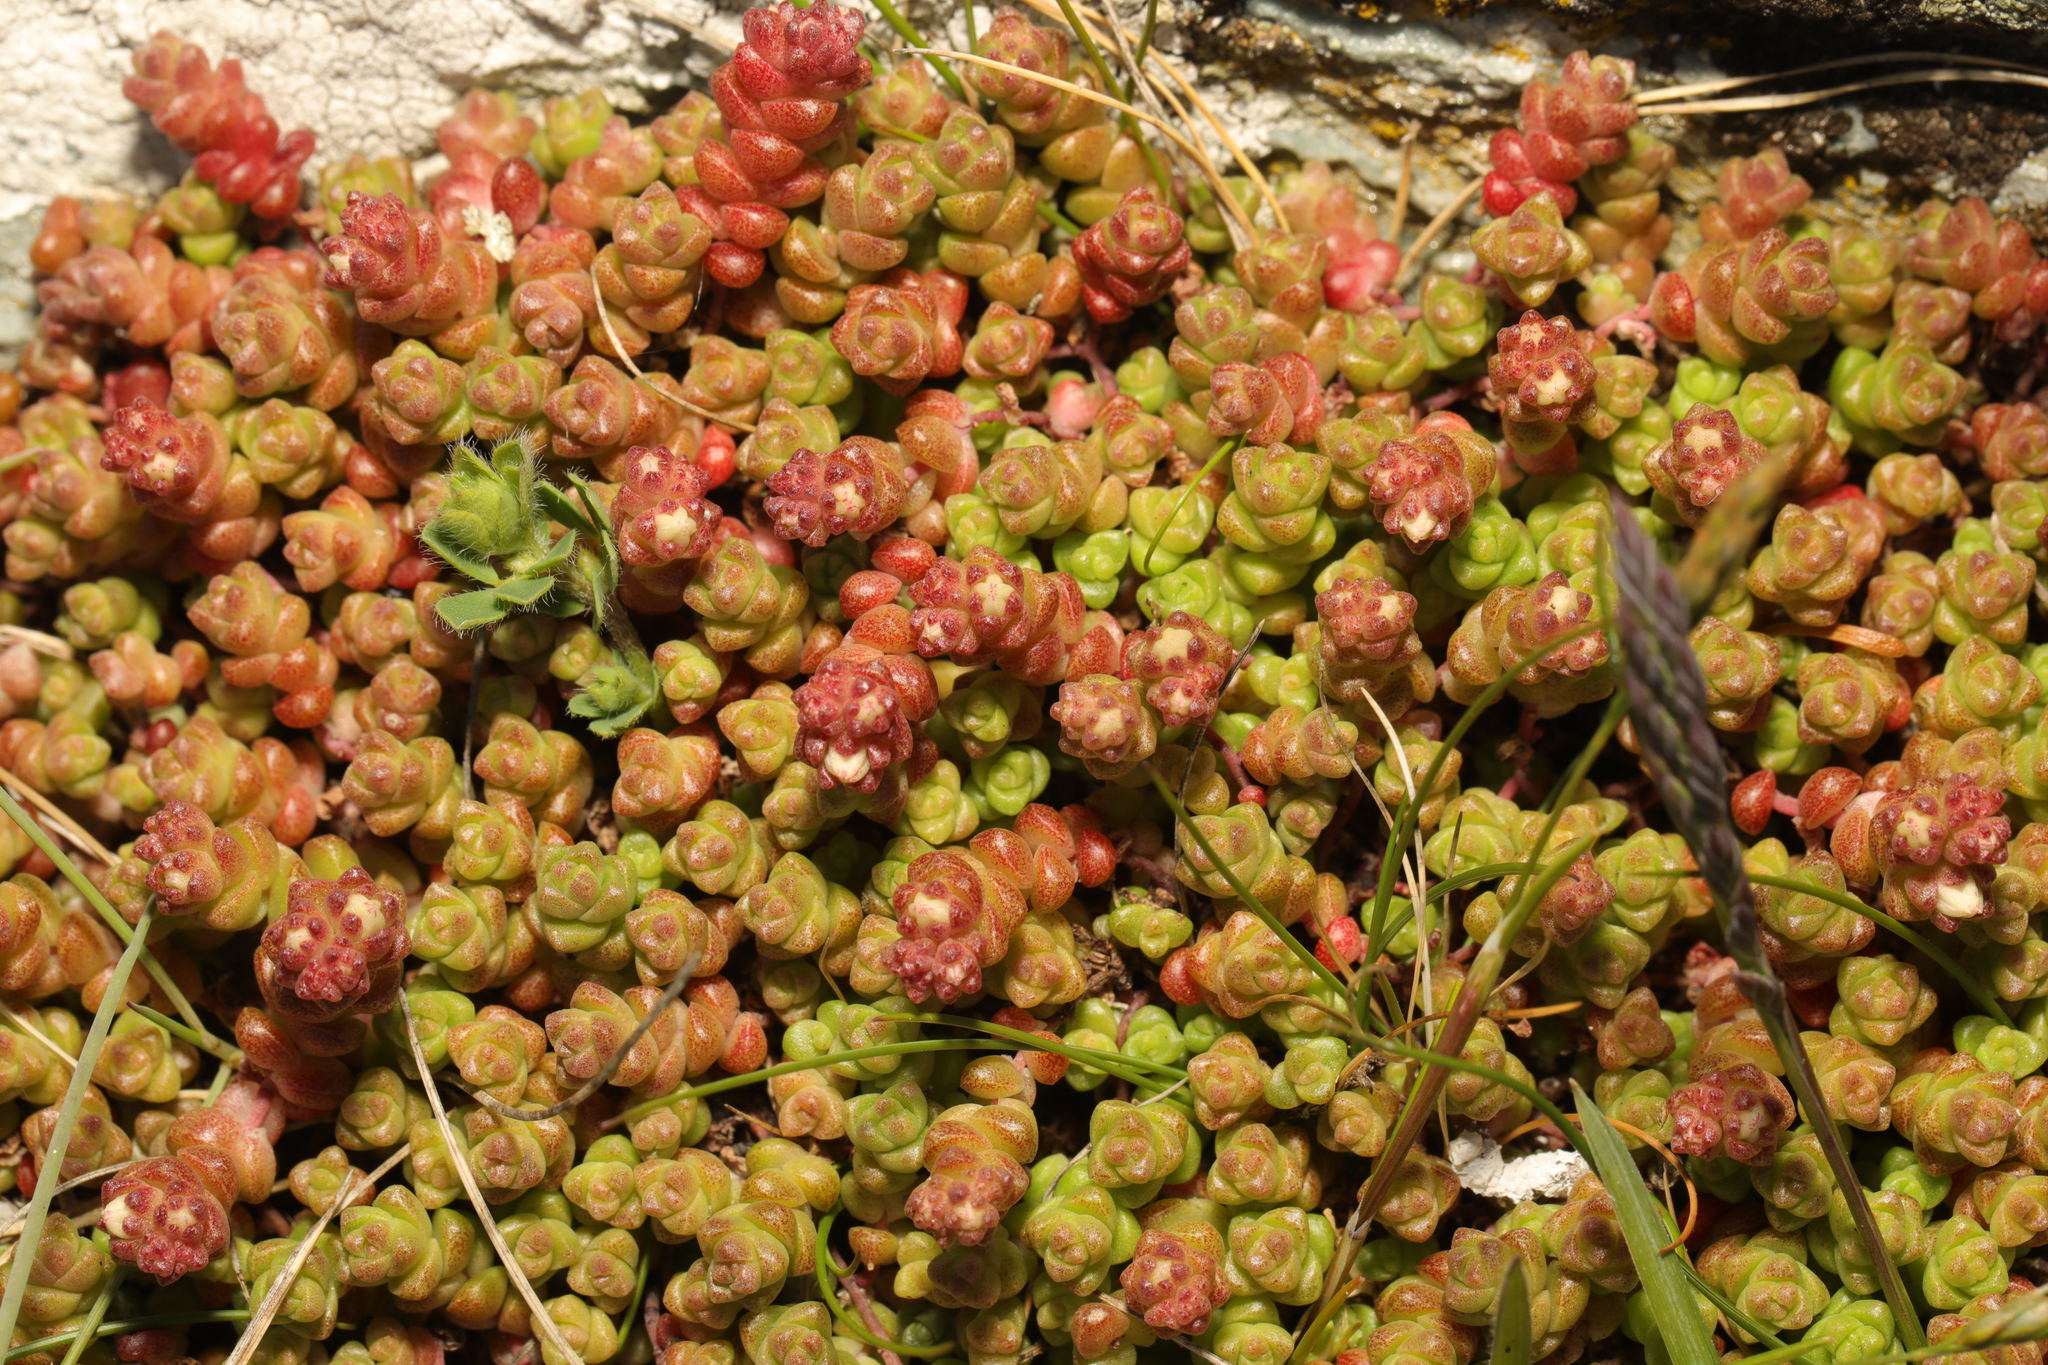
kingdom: Plantae
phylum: Tracheophyta
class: Magnoliopsida
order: Saxifragales
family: Crassulaceae
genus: Sedum
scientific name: Sedum anglicum
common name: English stonecrop
